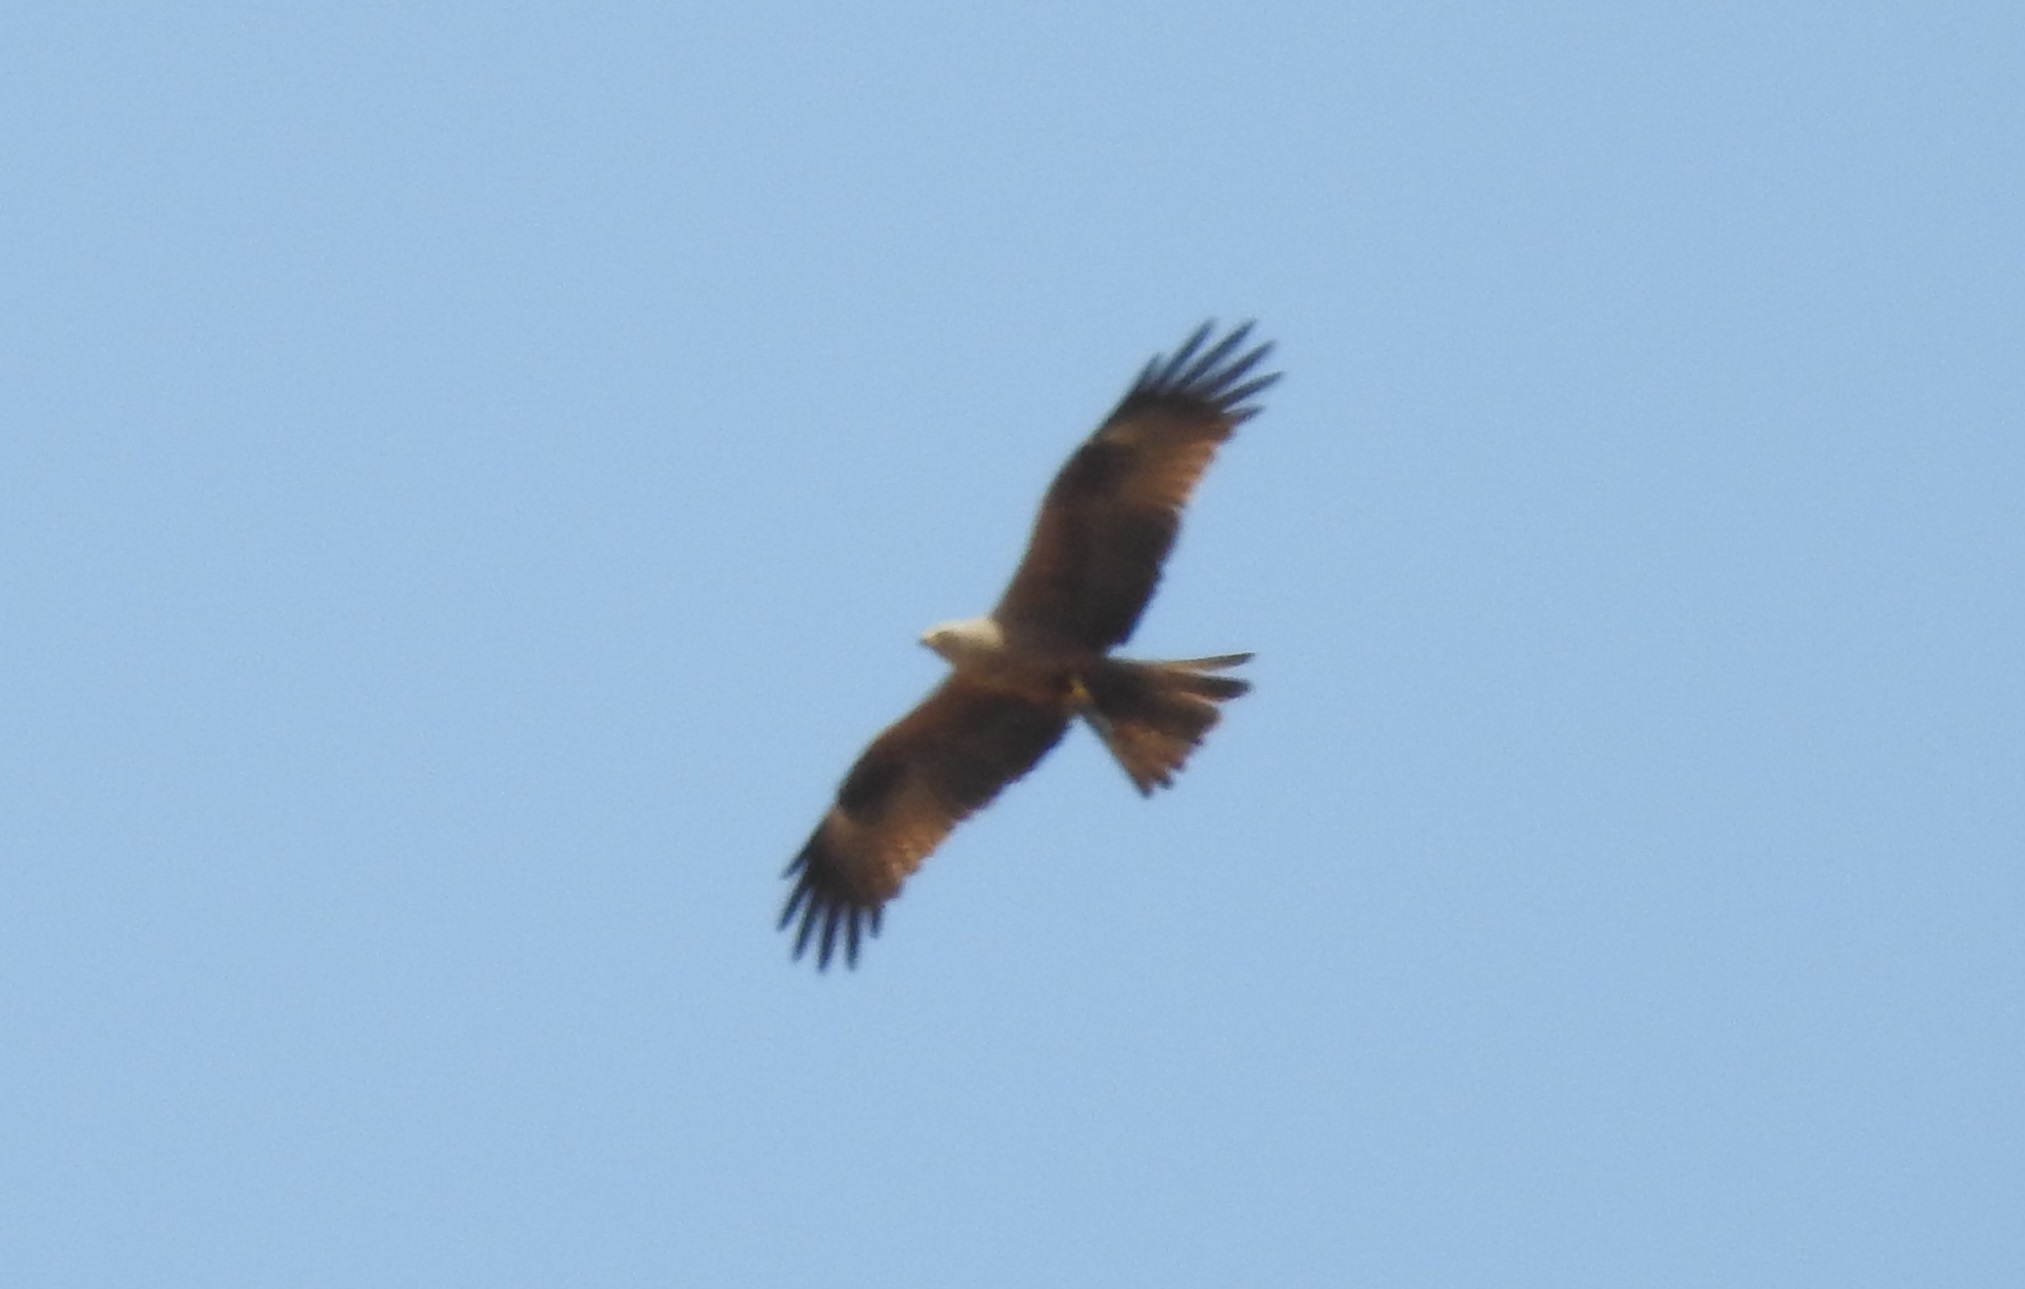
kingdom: Animalia
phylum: Chordata
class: Aves
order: Accipitriformes
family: Accipitridae
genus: Milvus
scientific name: Milvus migrans
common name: Black kite
